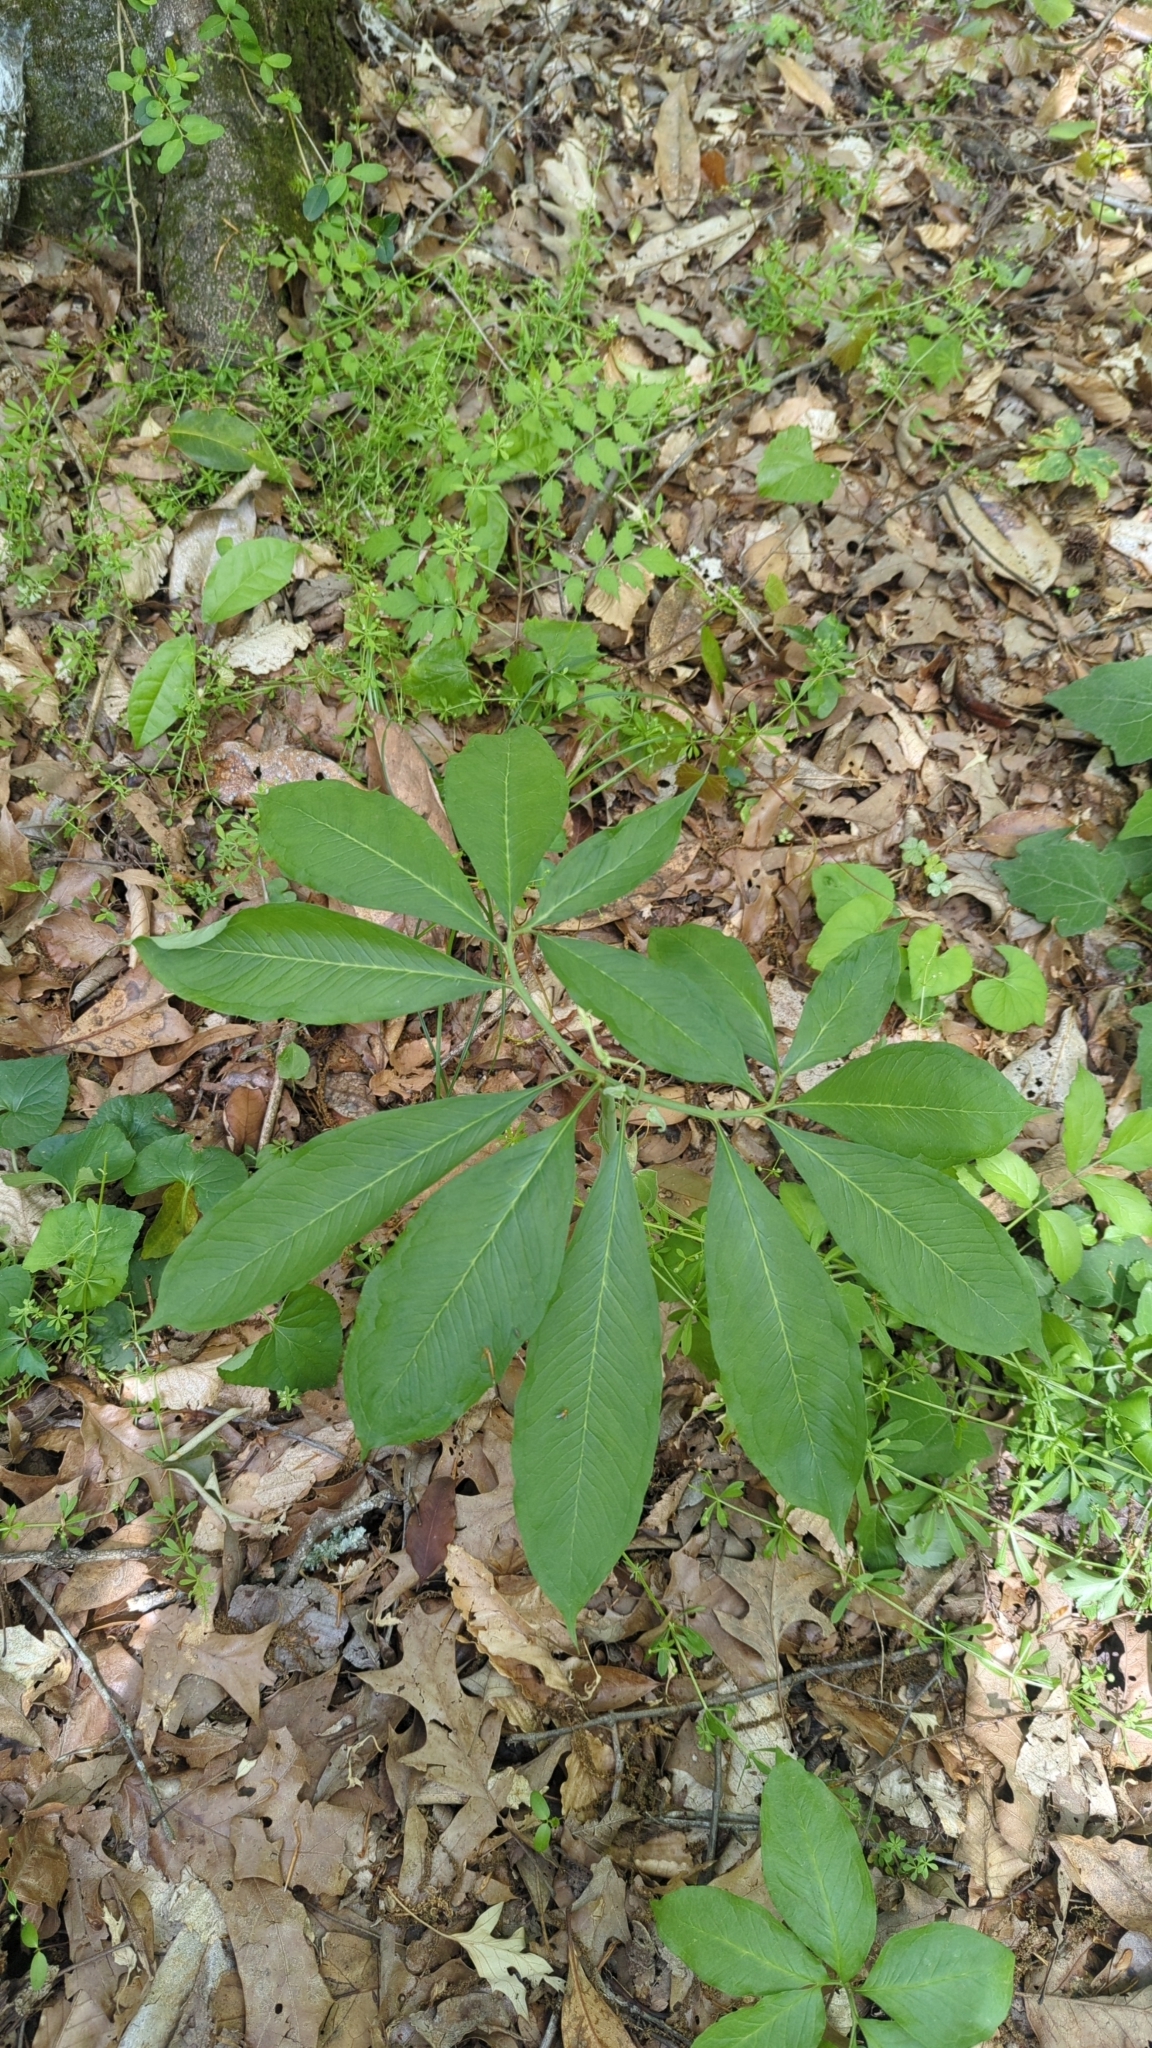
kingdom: Plantae
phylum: Tracheophyta
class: Liliopsida
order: Alismatales
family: Araceae
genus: Arisaema
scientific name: Arisaema dracontium
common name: Dragon-arum
